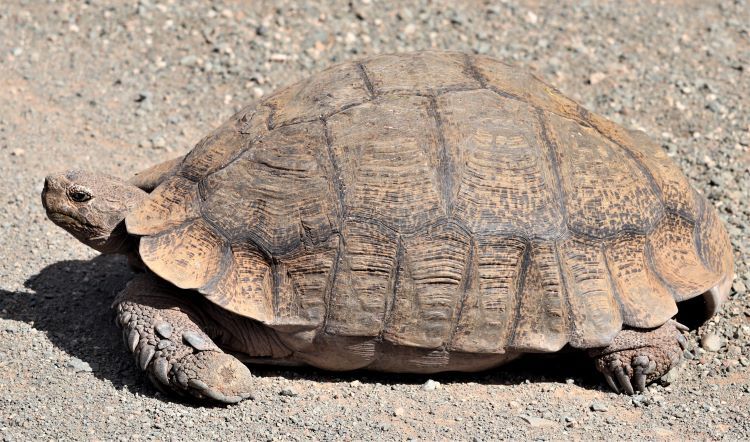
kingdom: Animalia
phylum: Chordata
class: Testudines
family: Testudinidae
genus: Stigmochelys
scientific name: Stigmochelys pardalis
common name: Leopard tortoise
